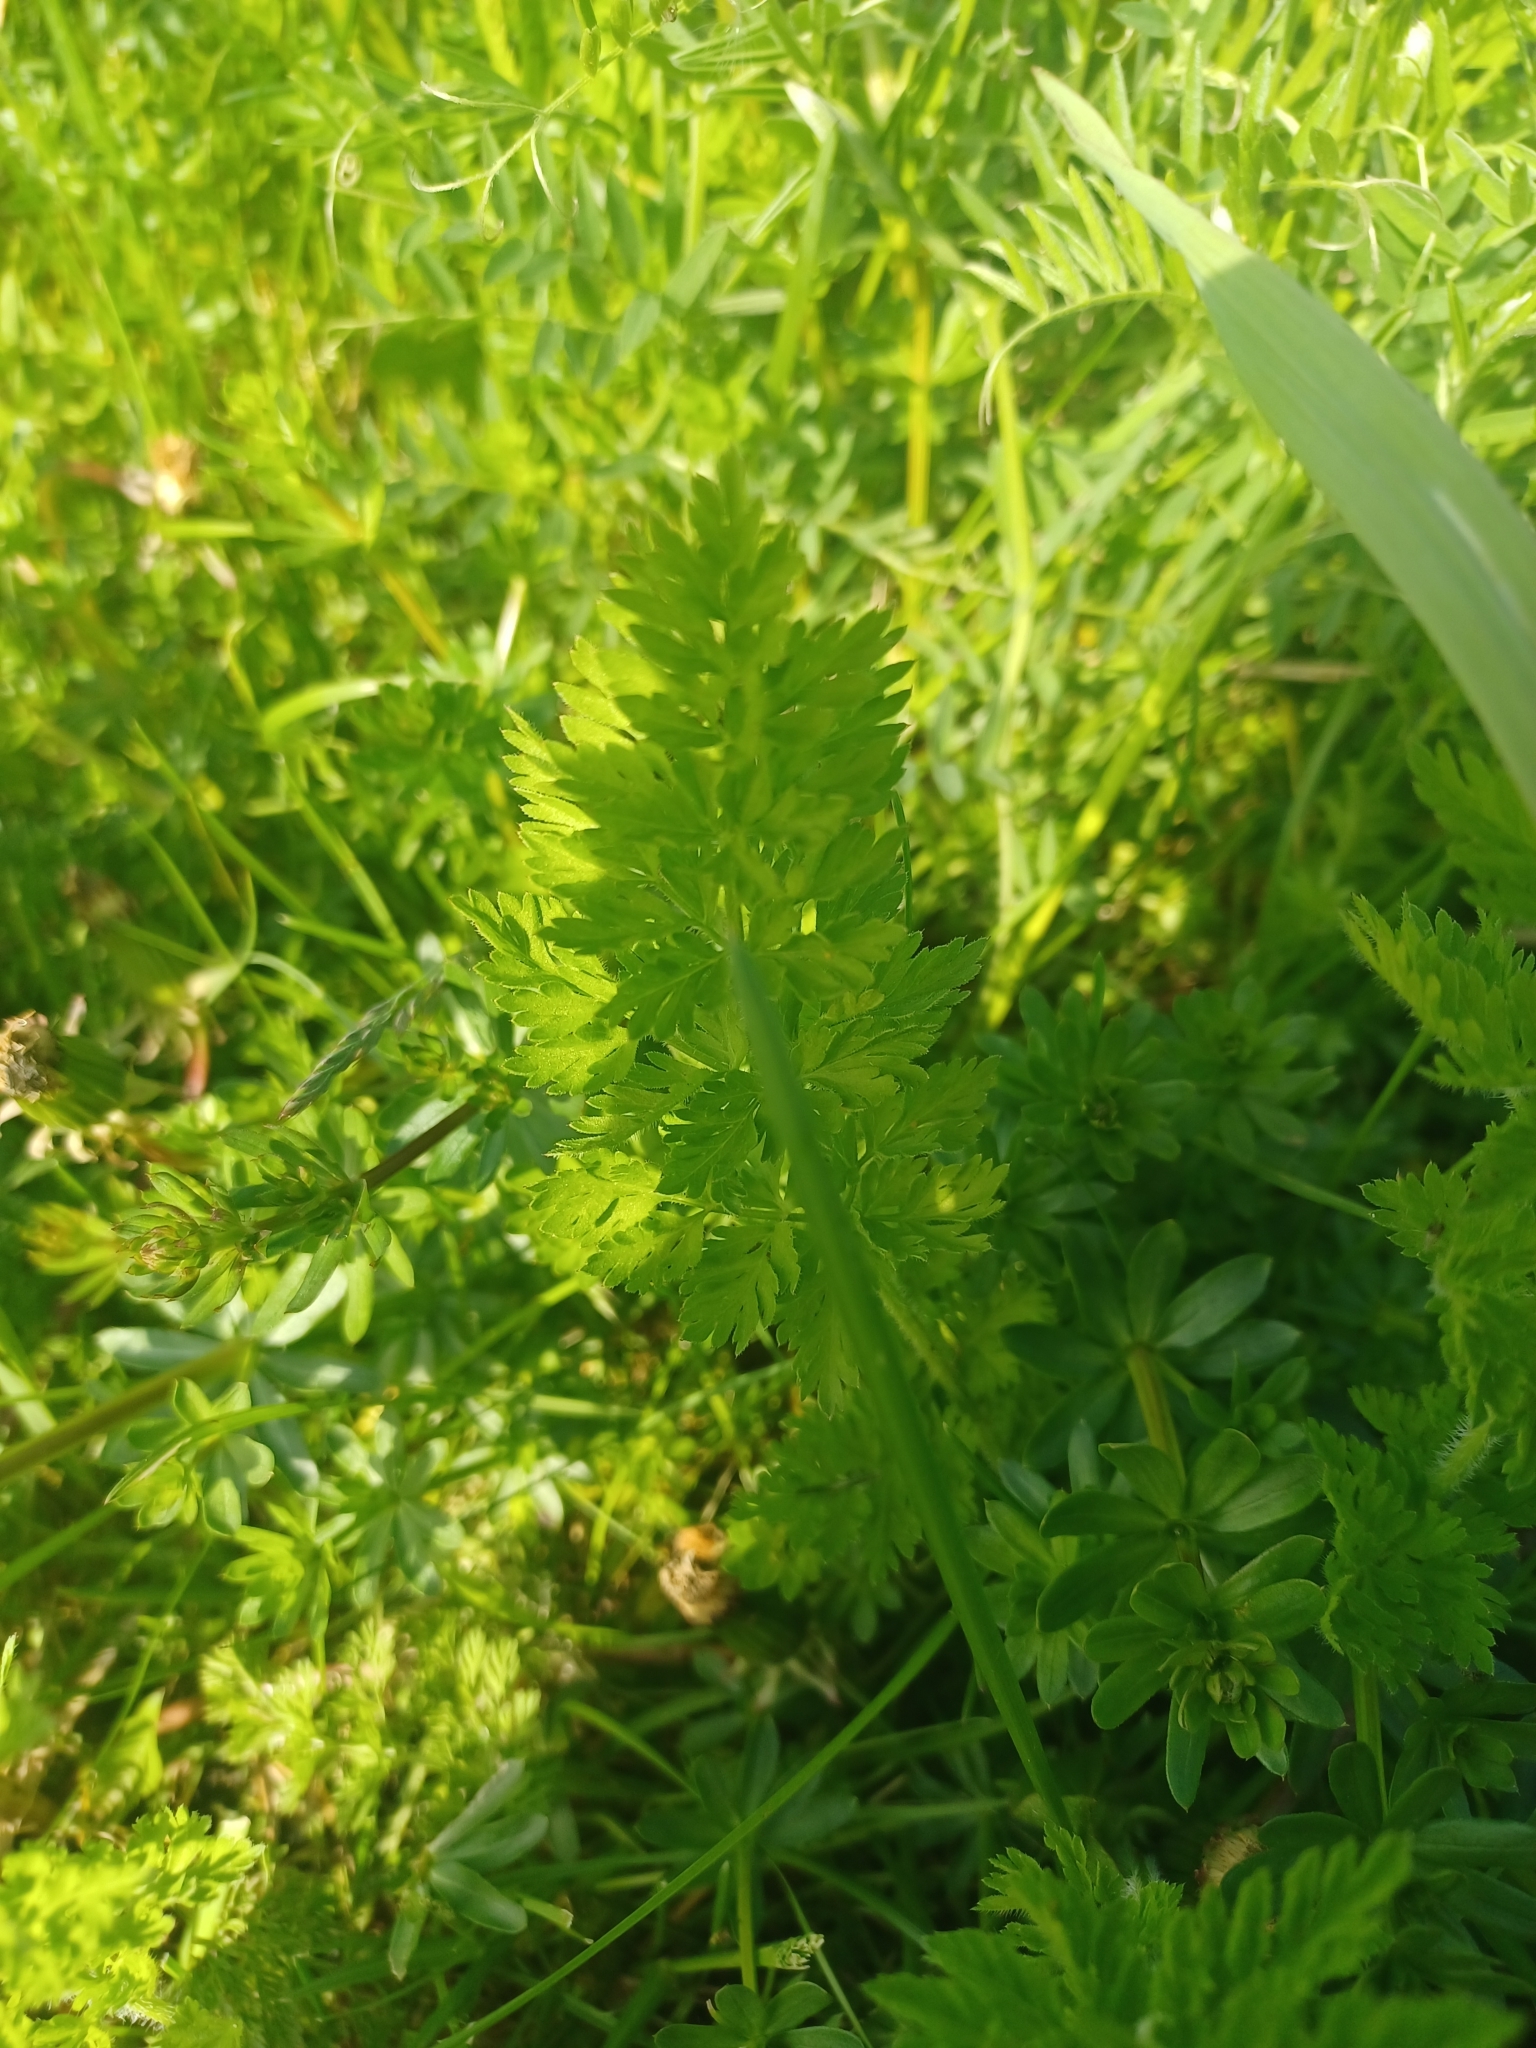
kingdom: Plantae
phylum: Tracheophyta
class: Magnoliopsida
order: Apiales
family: Apiaceae
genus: Daucus
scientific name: Daucus carota
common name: Wild carrot
